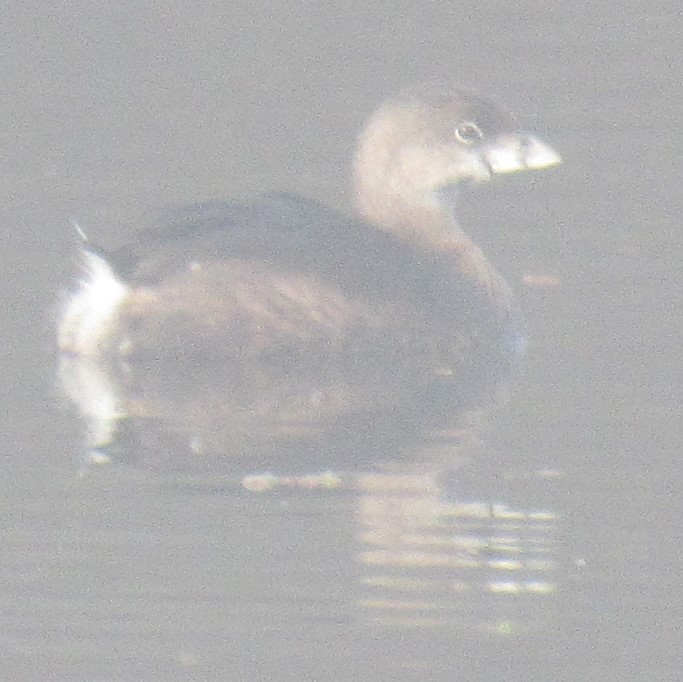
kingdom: Animalia
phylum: Chordata
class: Aves
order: Podicipediformes
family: Podicipedidae
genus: Podilymbus
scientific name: Podilymbus podiceps
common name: Pied-billed grebe
